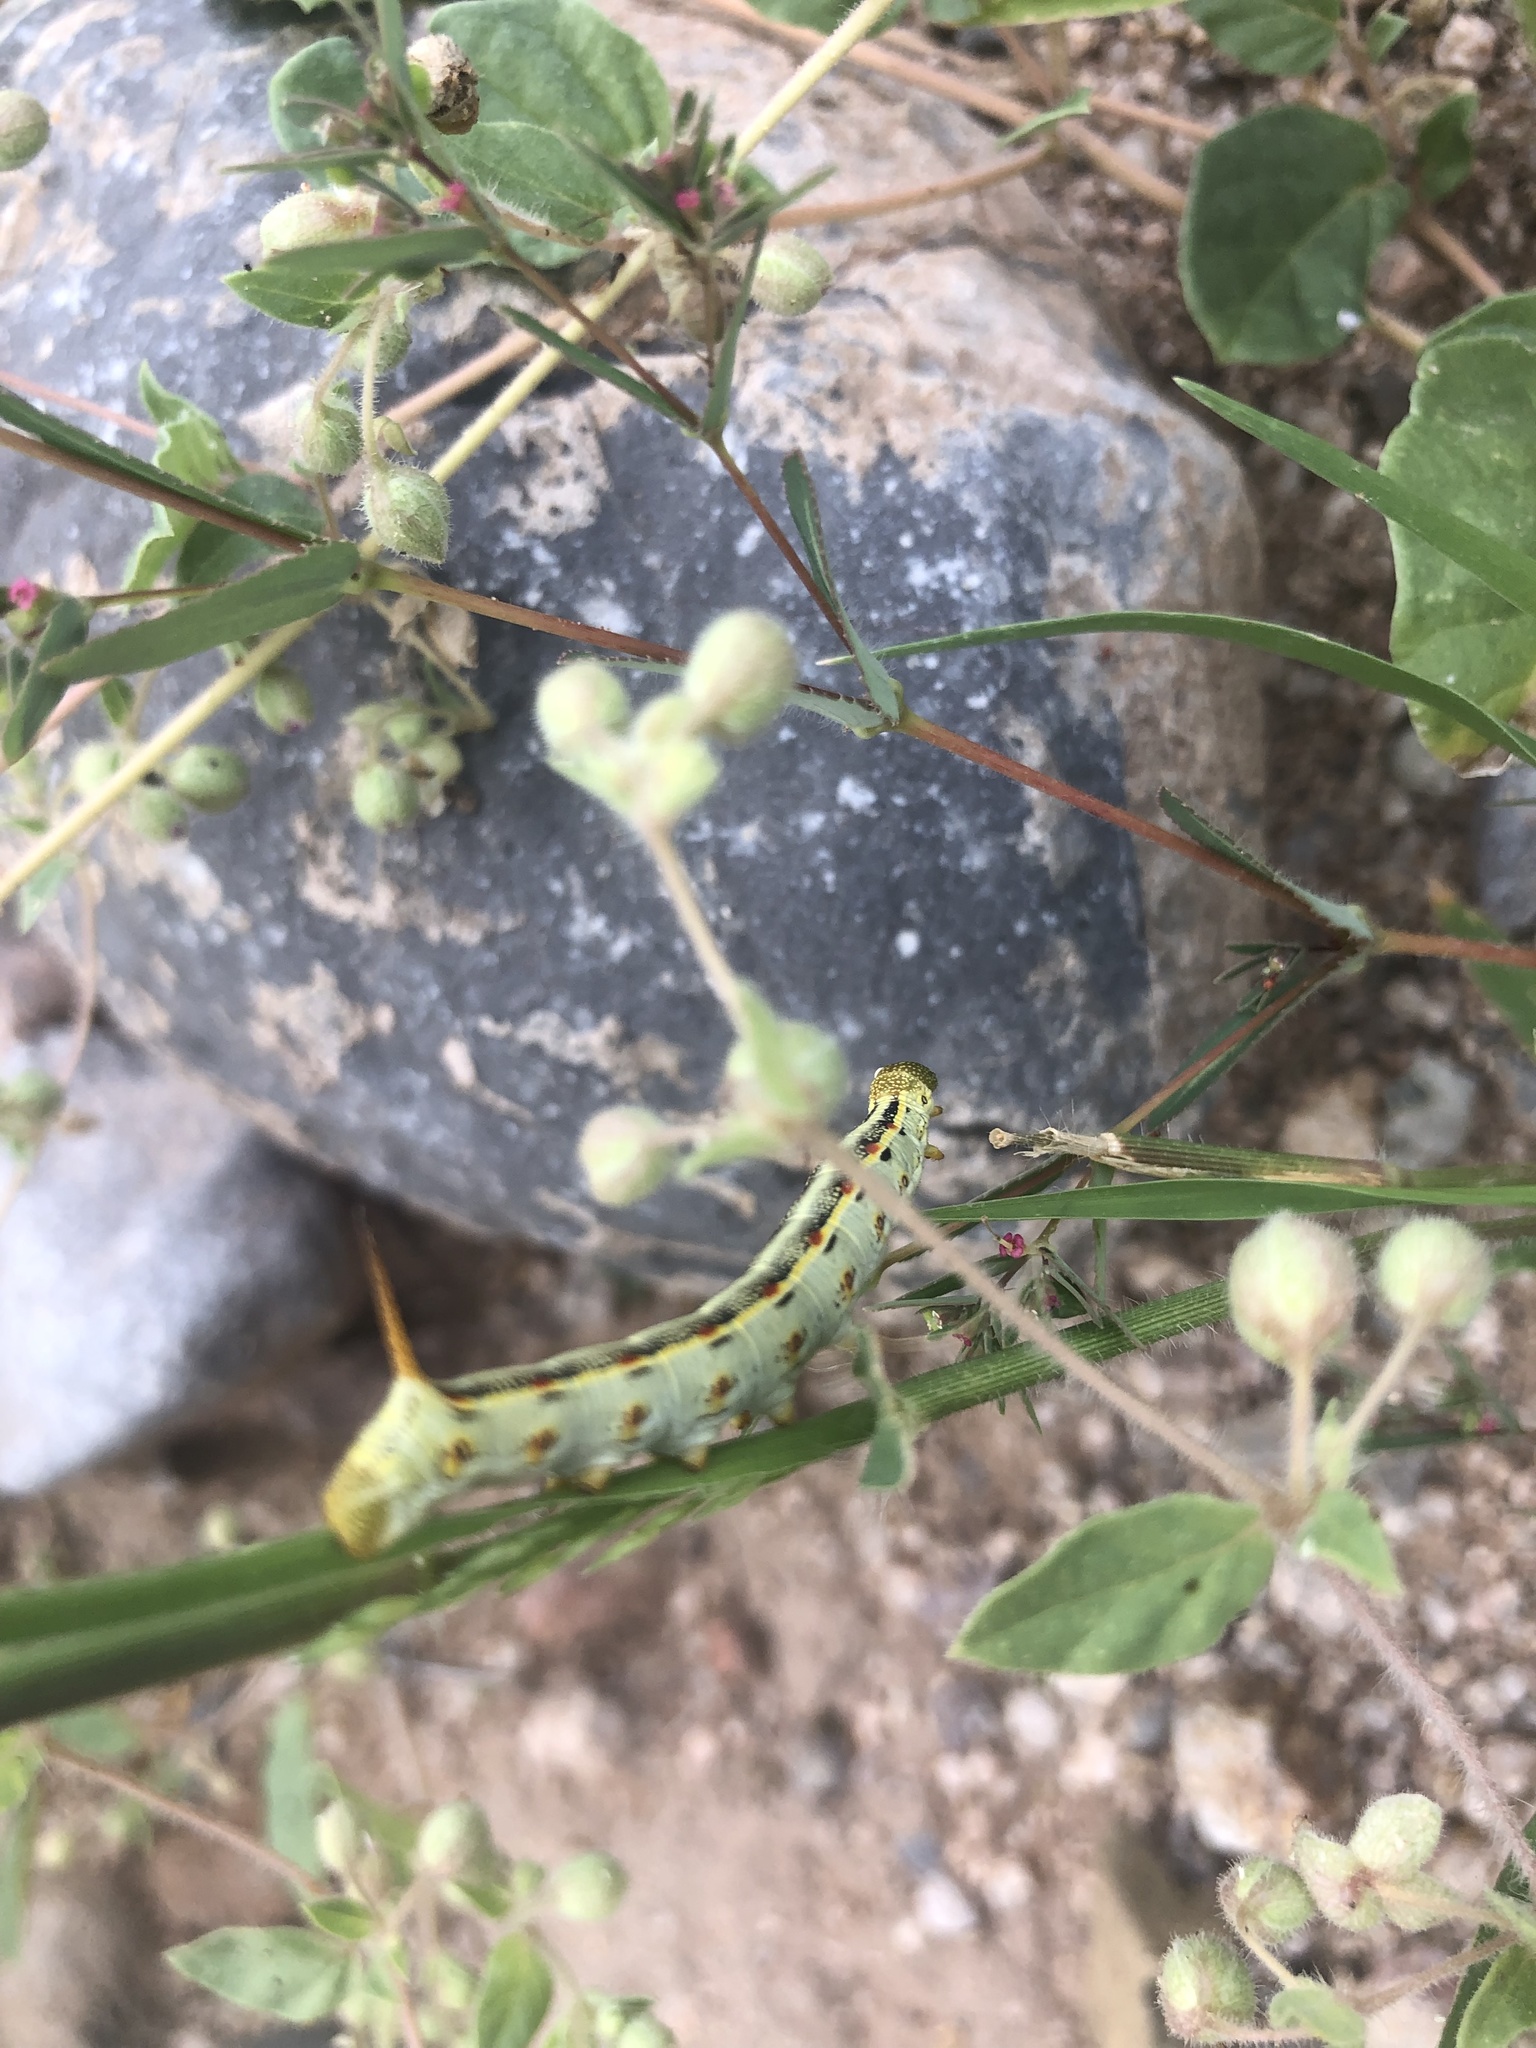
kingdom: Animalia
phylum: Arthropoda
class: Insecta
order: Lepidoptera
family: Sphingidae
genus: Hyles
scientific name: Hyles lineata
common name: White-lined sphinx
